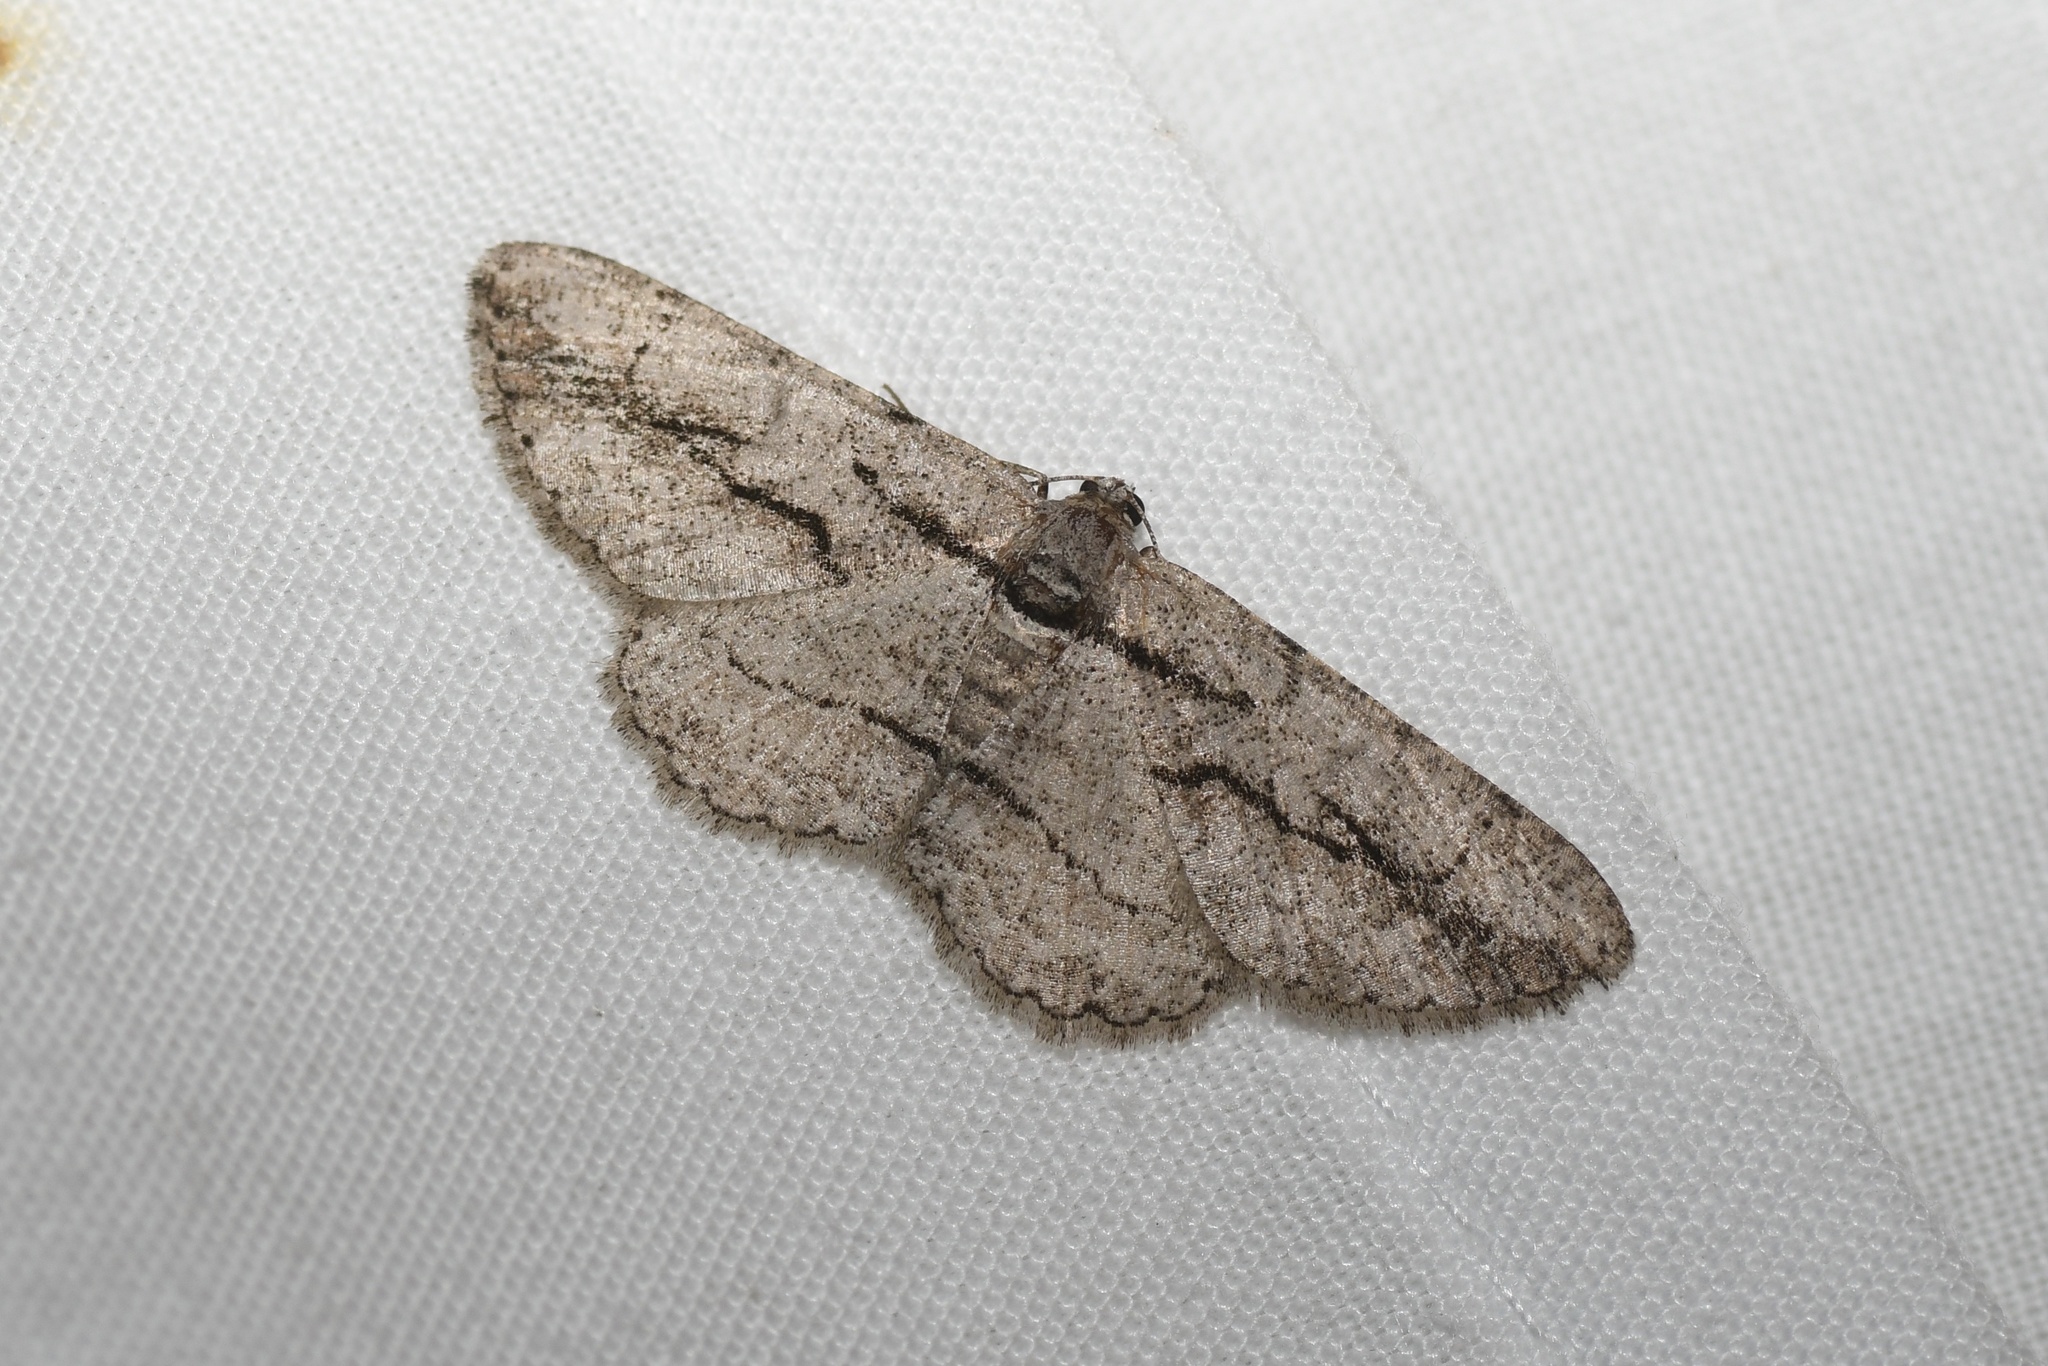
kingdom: Animalia
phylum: Arthropoda
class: Insecta
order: Lepidoptera
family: Geometridae
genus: Anavitrinella
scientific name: Anavitrinella pampinaria
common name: Common gray
